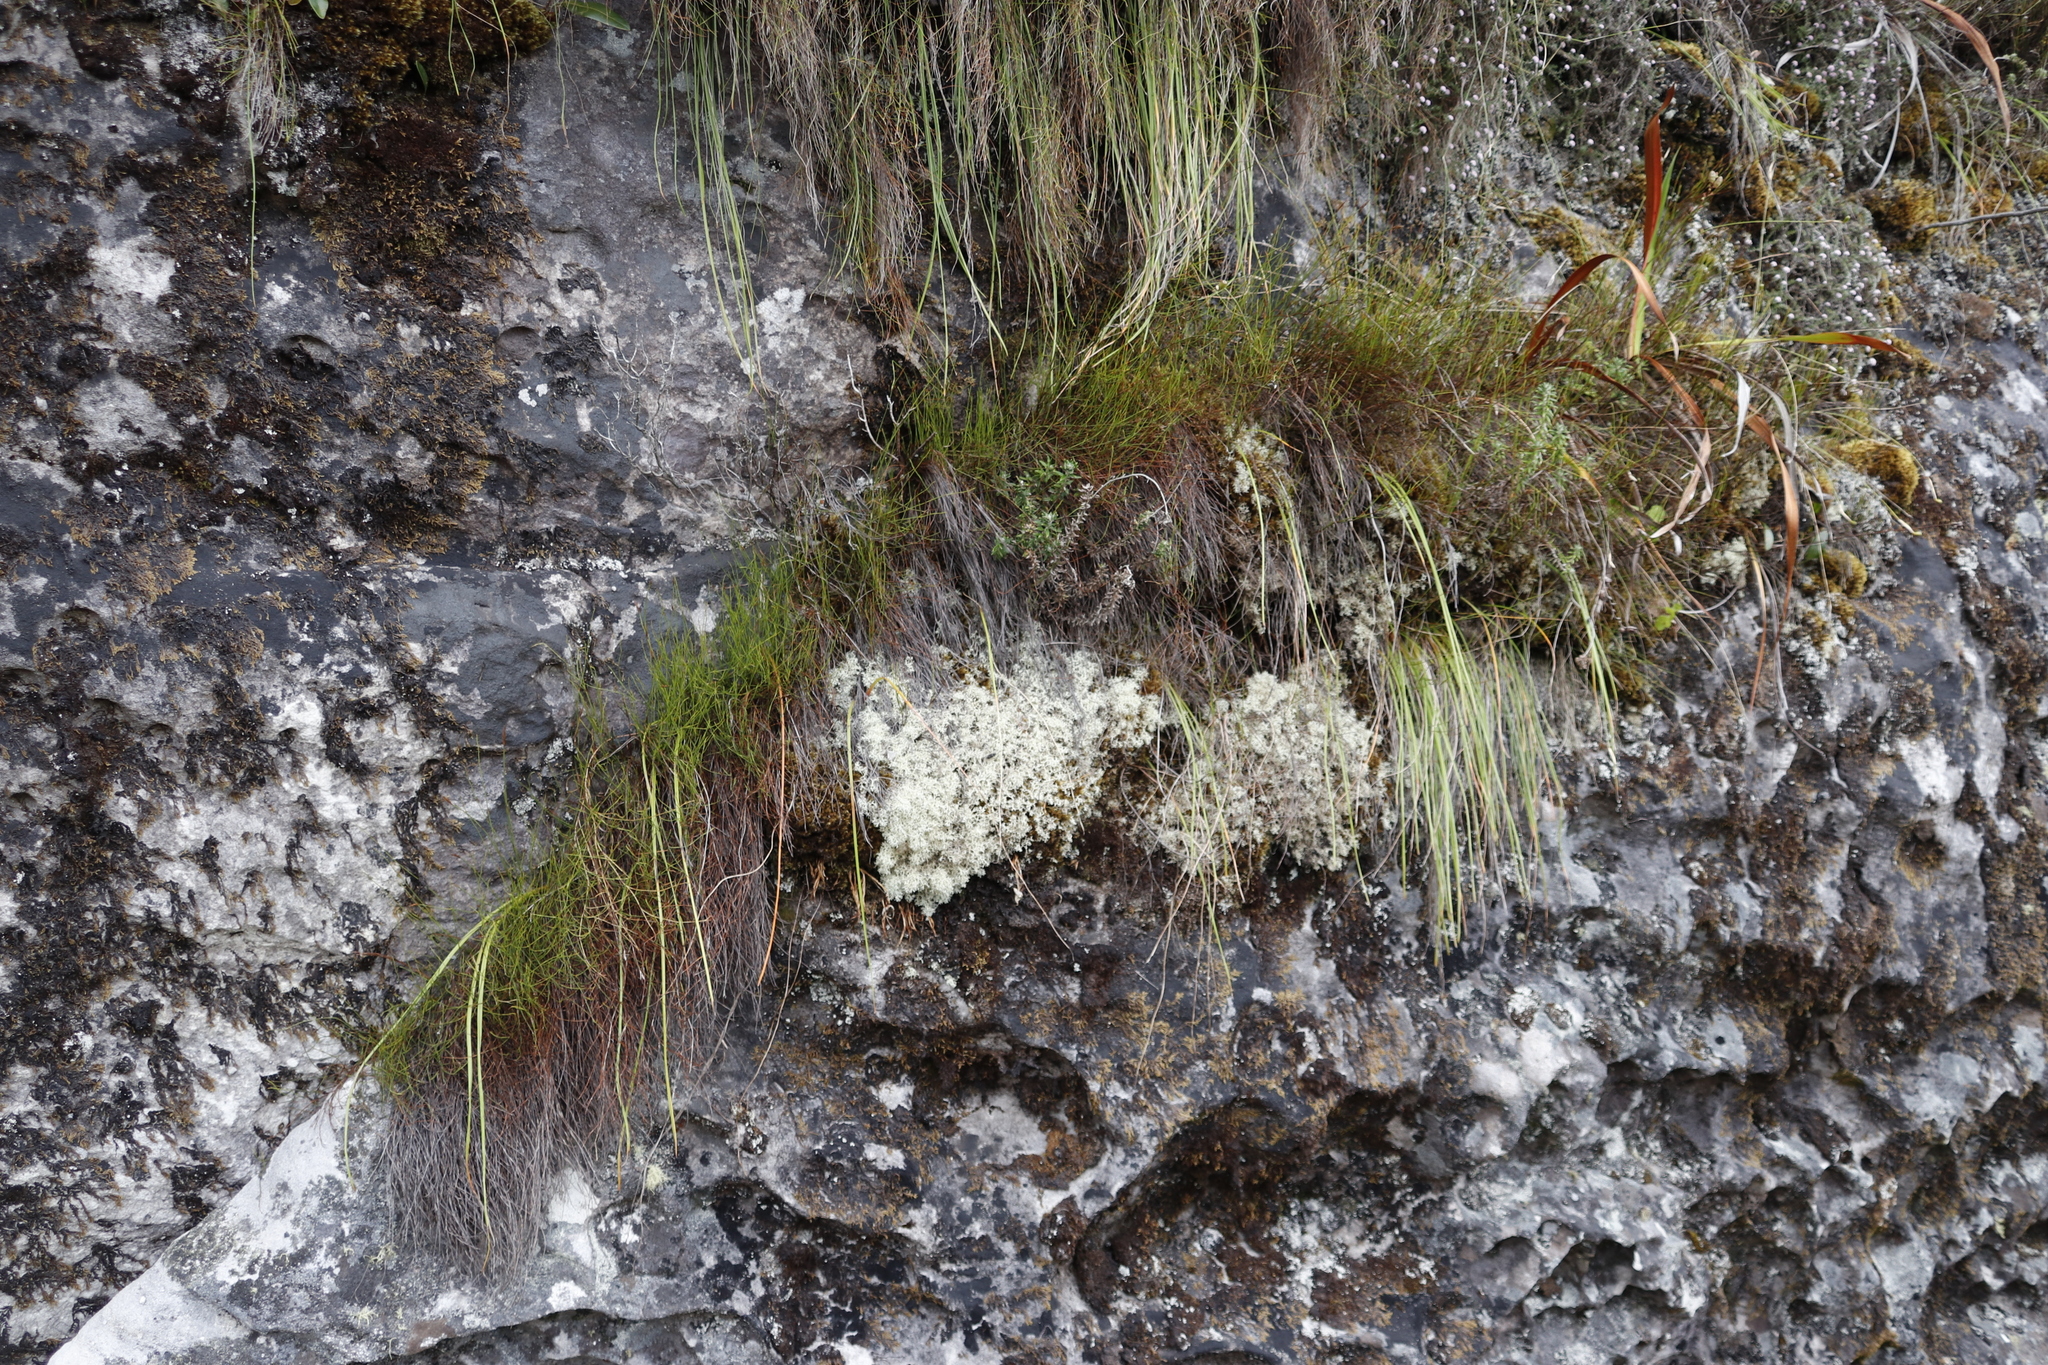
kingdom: Fungi
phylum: Ascomycota
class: Lecanoromycetes
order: Lecanorales
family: Cladoniaceae
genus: Cladonia
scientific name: Cladonia confusa
